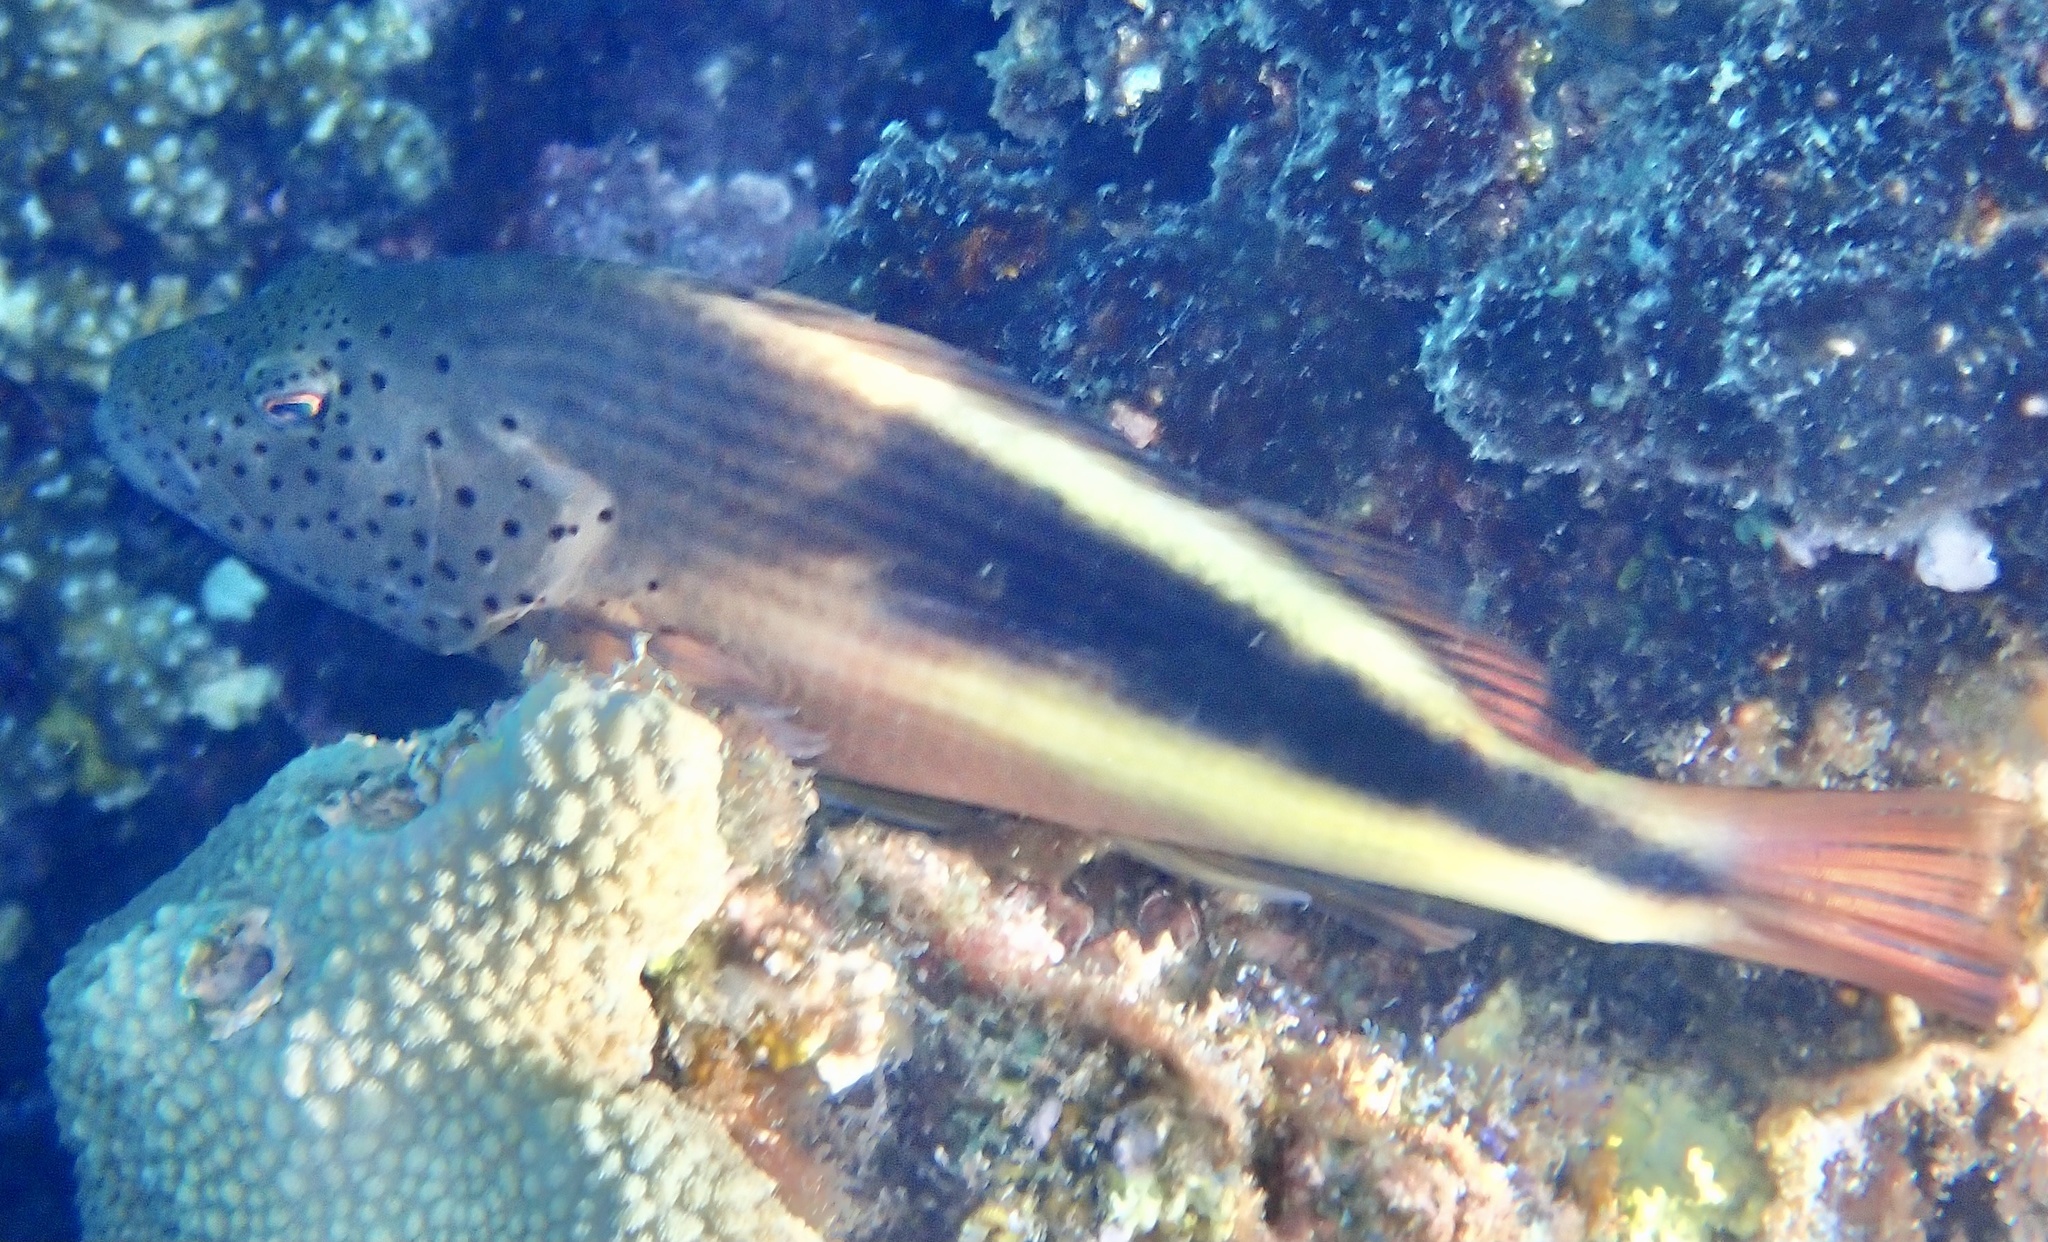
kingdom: Animalia
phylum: Chordata
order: Perciformes
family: Cirrhitidae
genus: Paracirrhites
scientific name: Paracirrhites forsteri
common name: Freckled hawkfish
